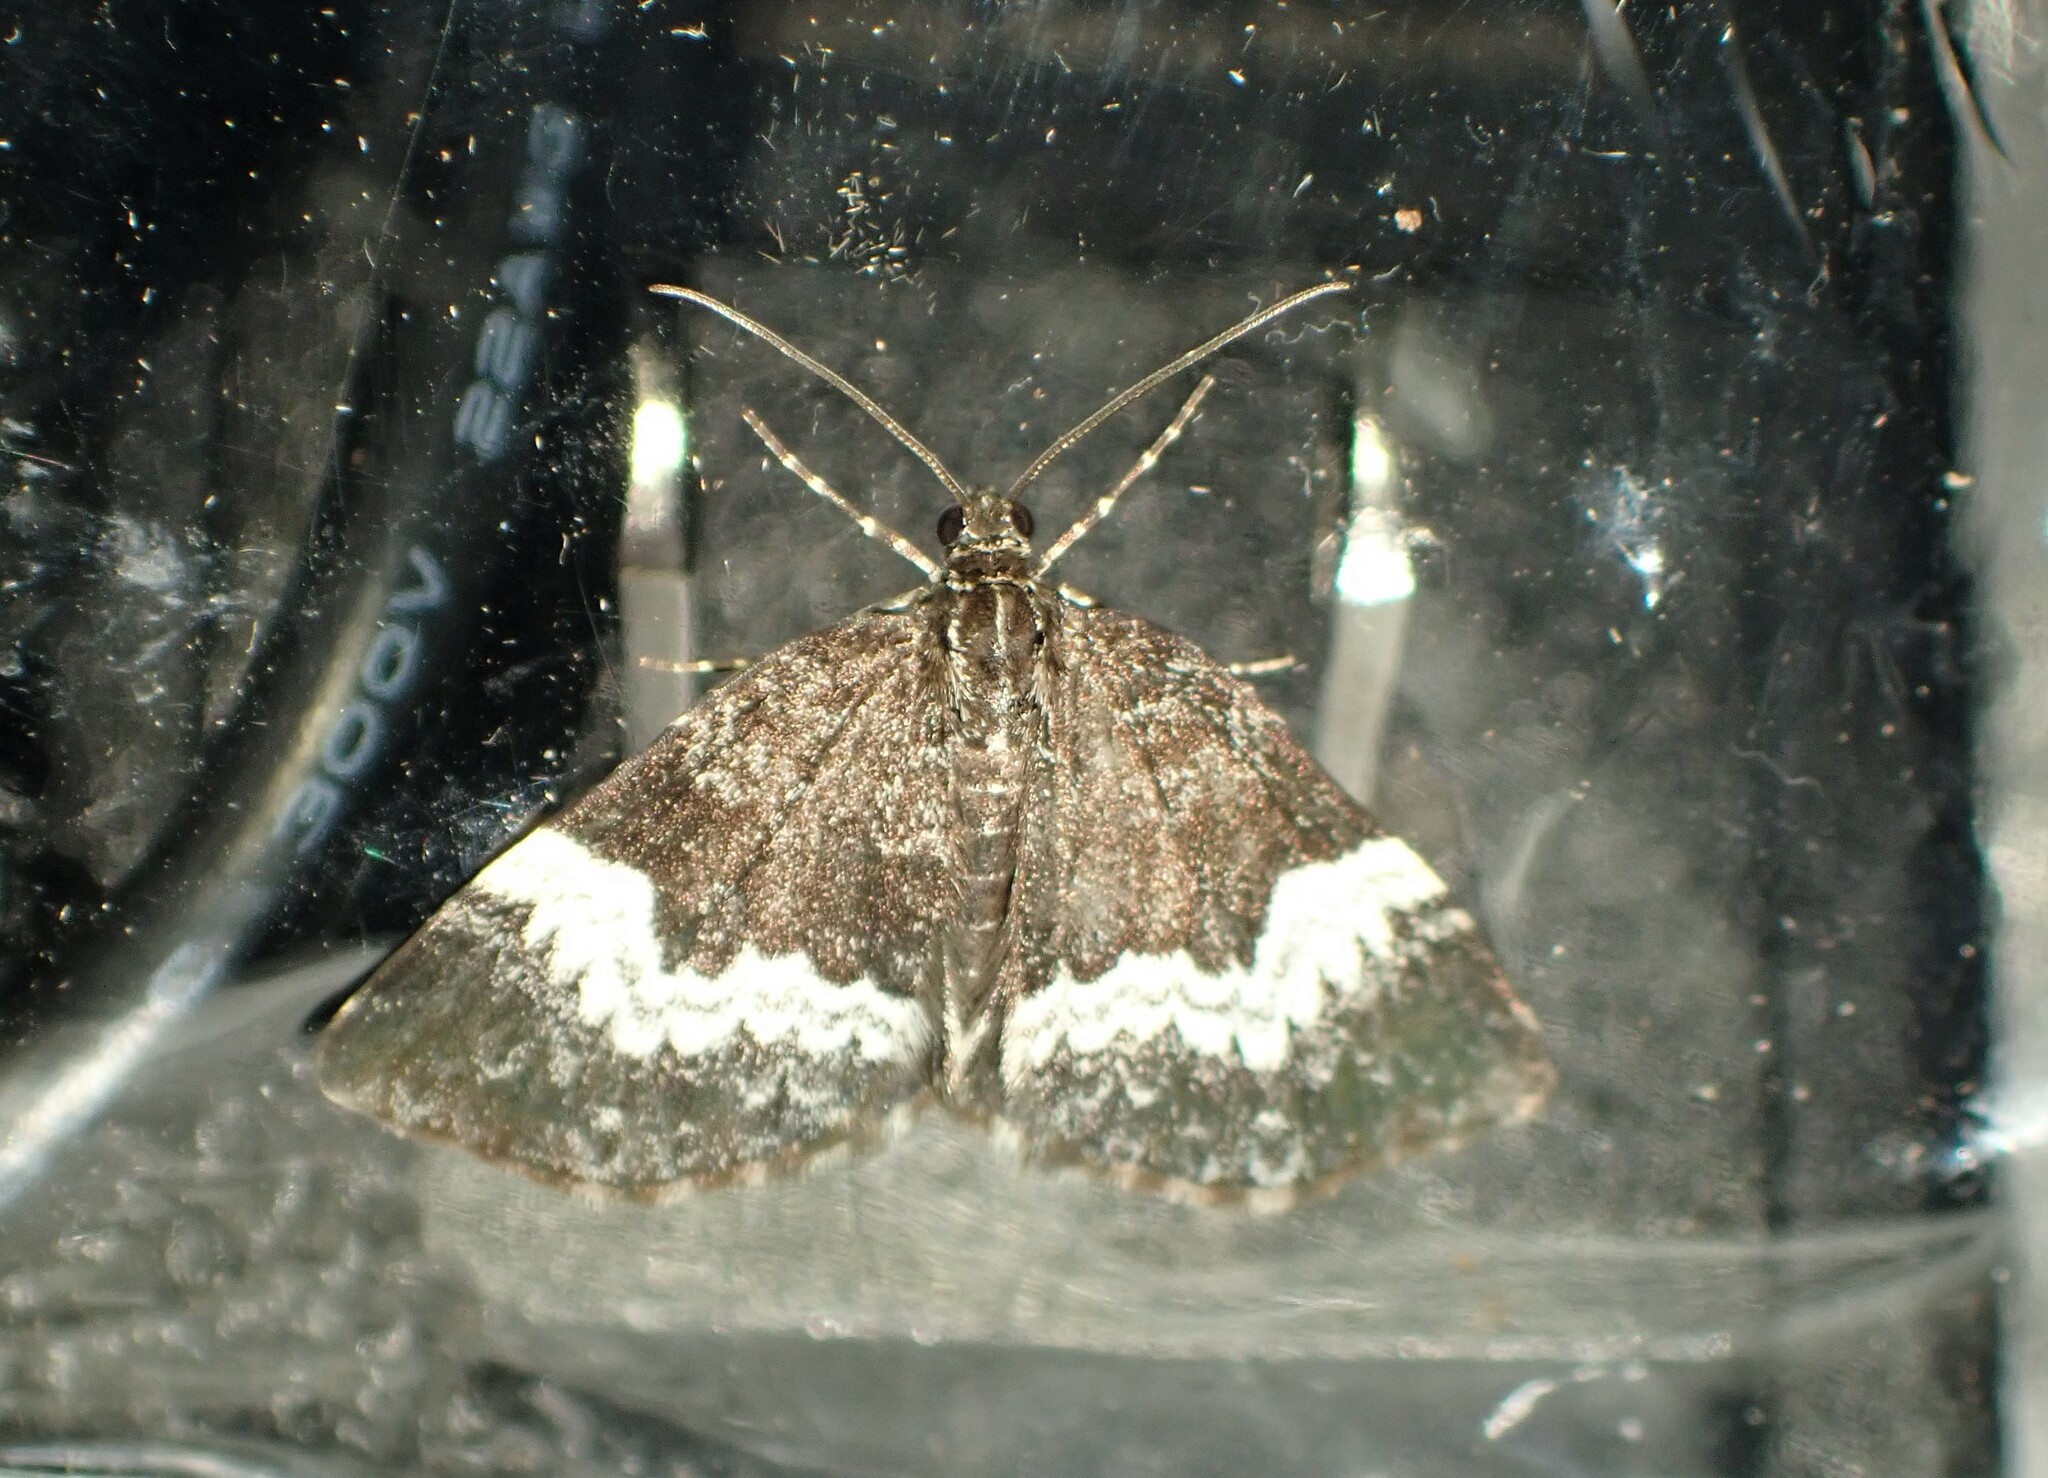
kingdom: Animalia
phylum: Arthropoda
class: Insecta
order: Lepidoptera
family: Geometridae
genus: Spargania
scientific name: Spargania luctuata
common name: White-banded carpet
